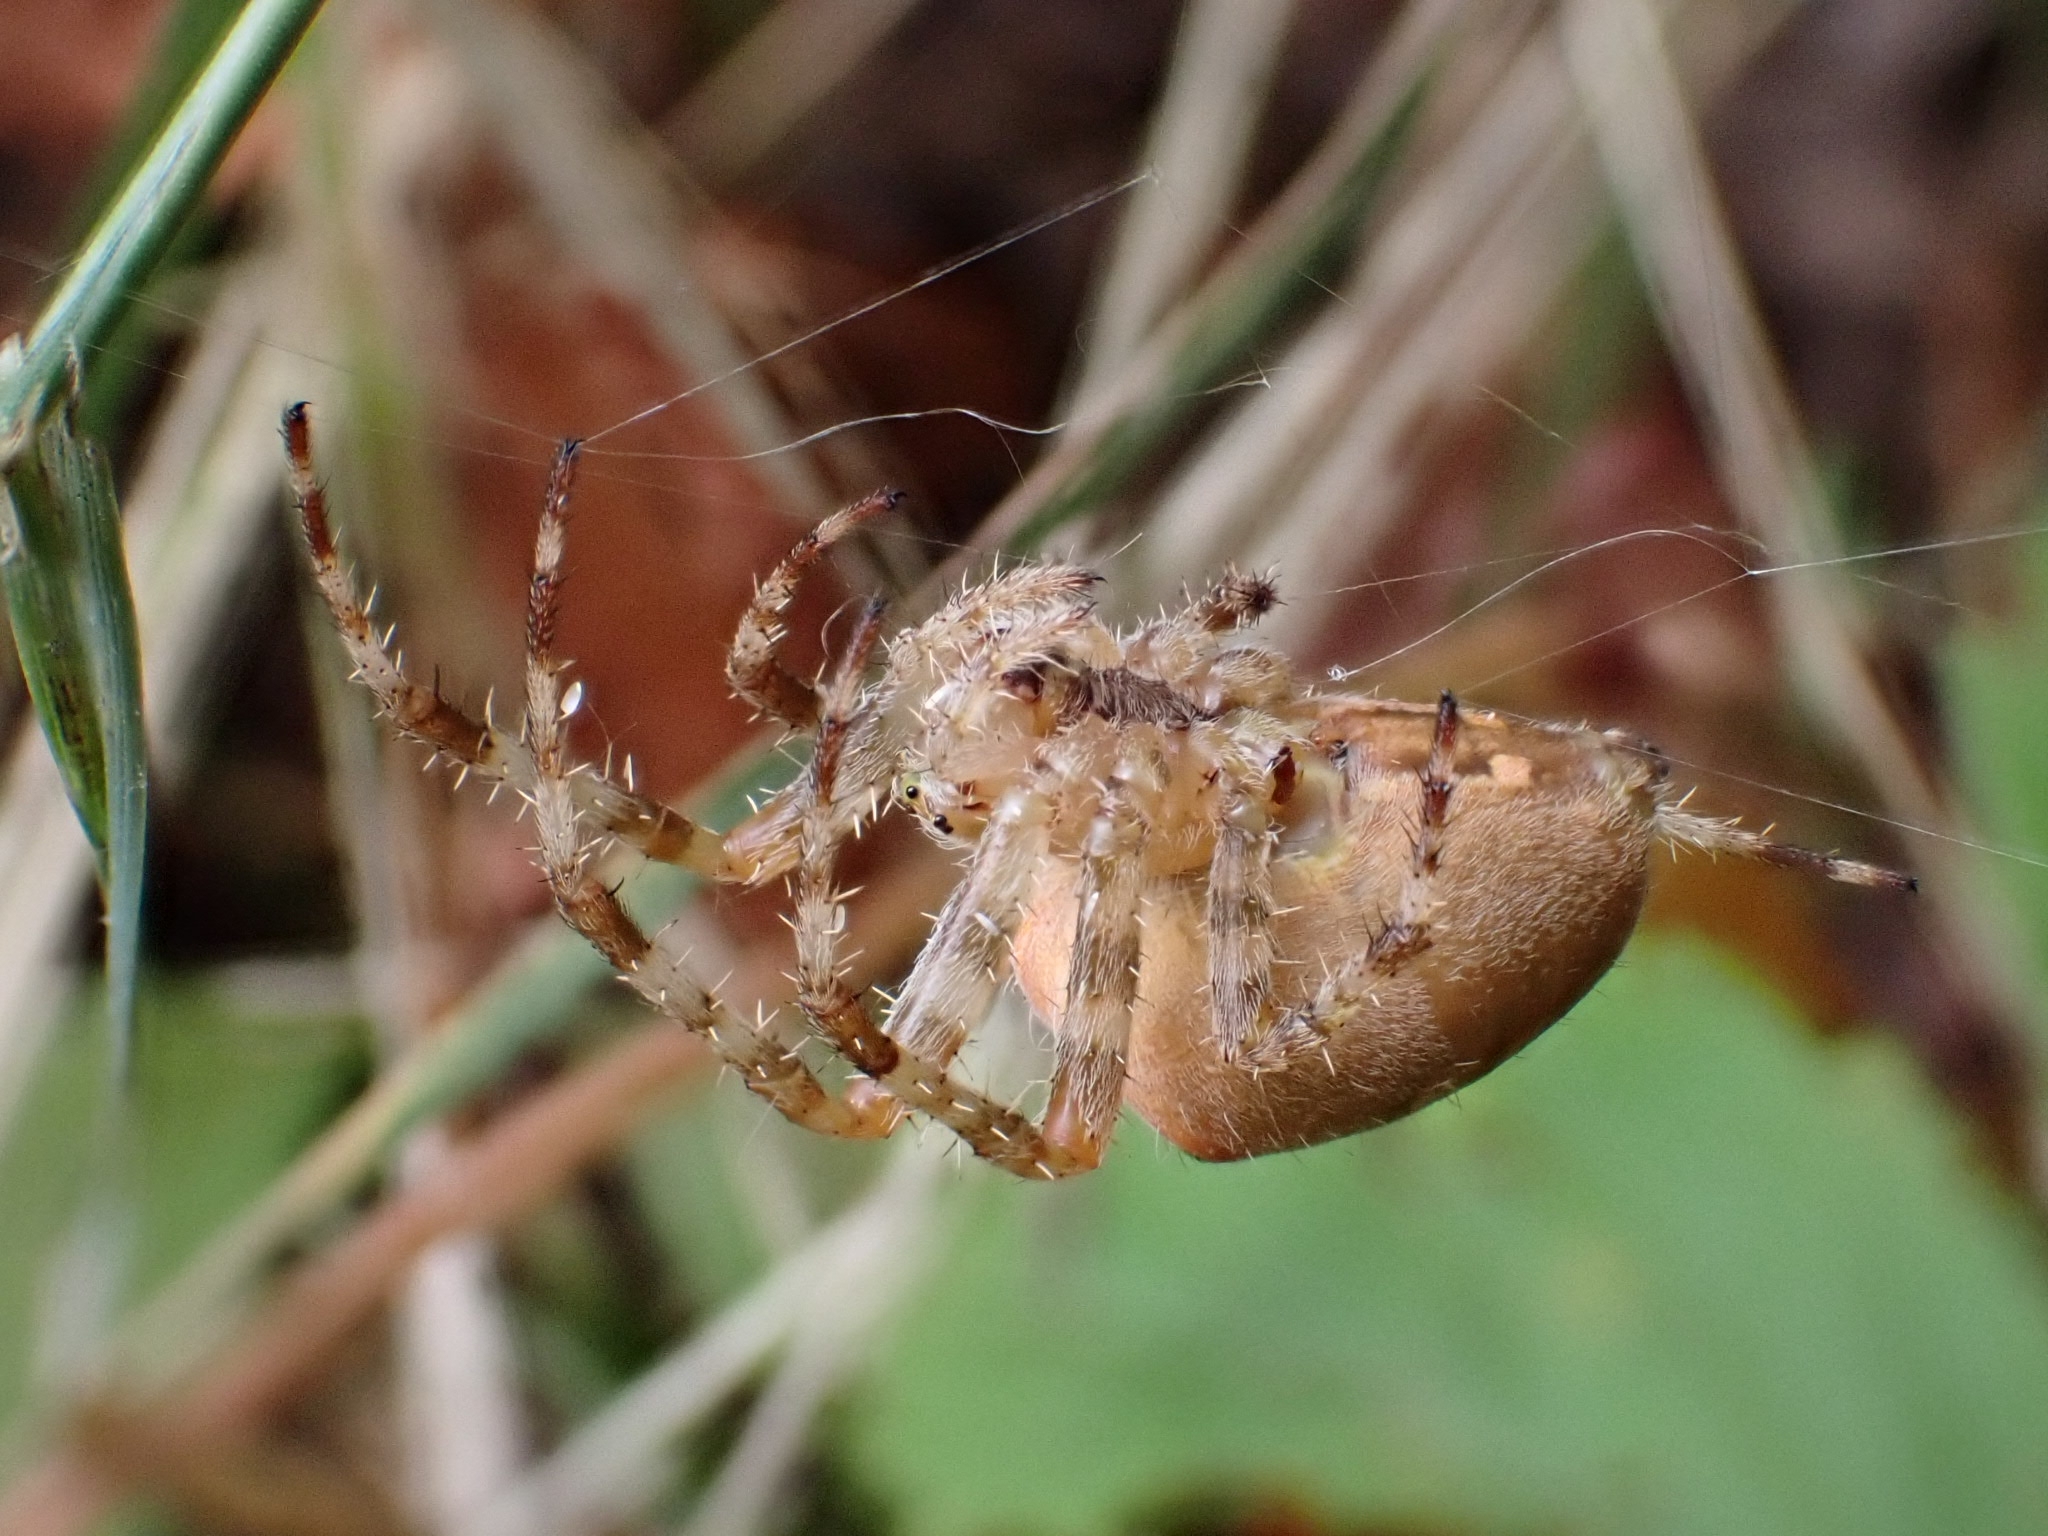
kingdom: Animalia
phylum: Arthropoda
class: Arachnida
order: Araneae
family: Araneidae
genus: Araneus
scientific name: Araneus diadematus
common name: Cross orbweaver
